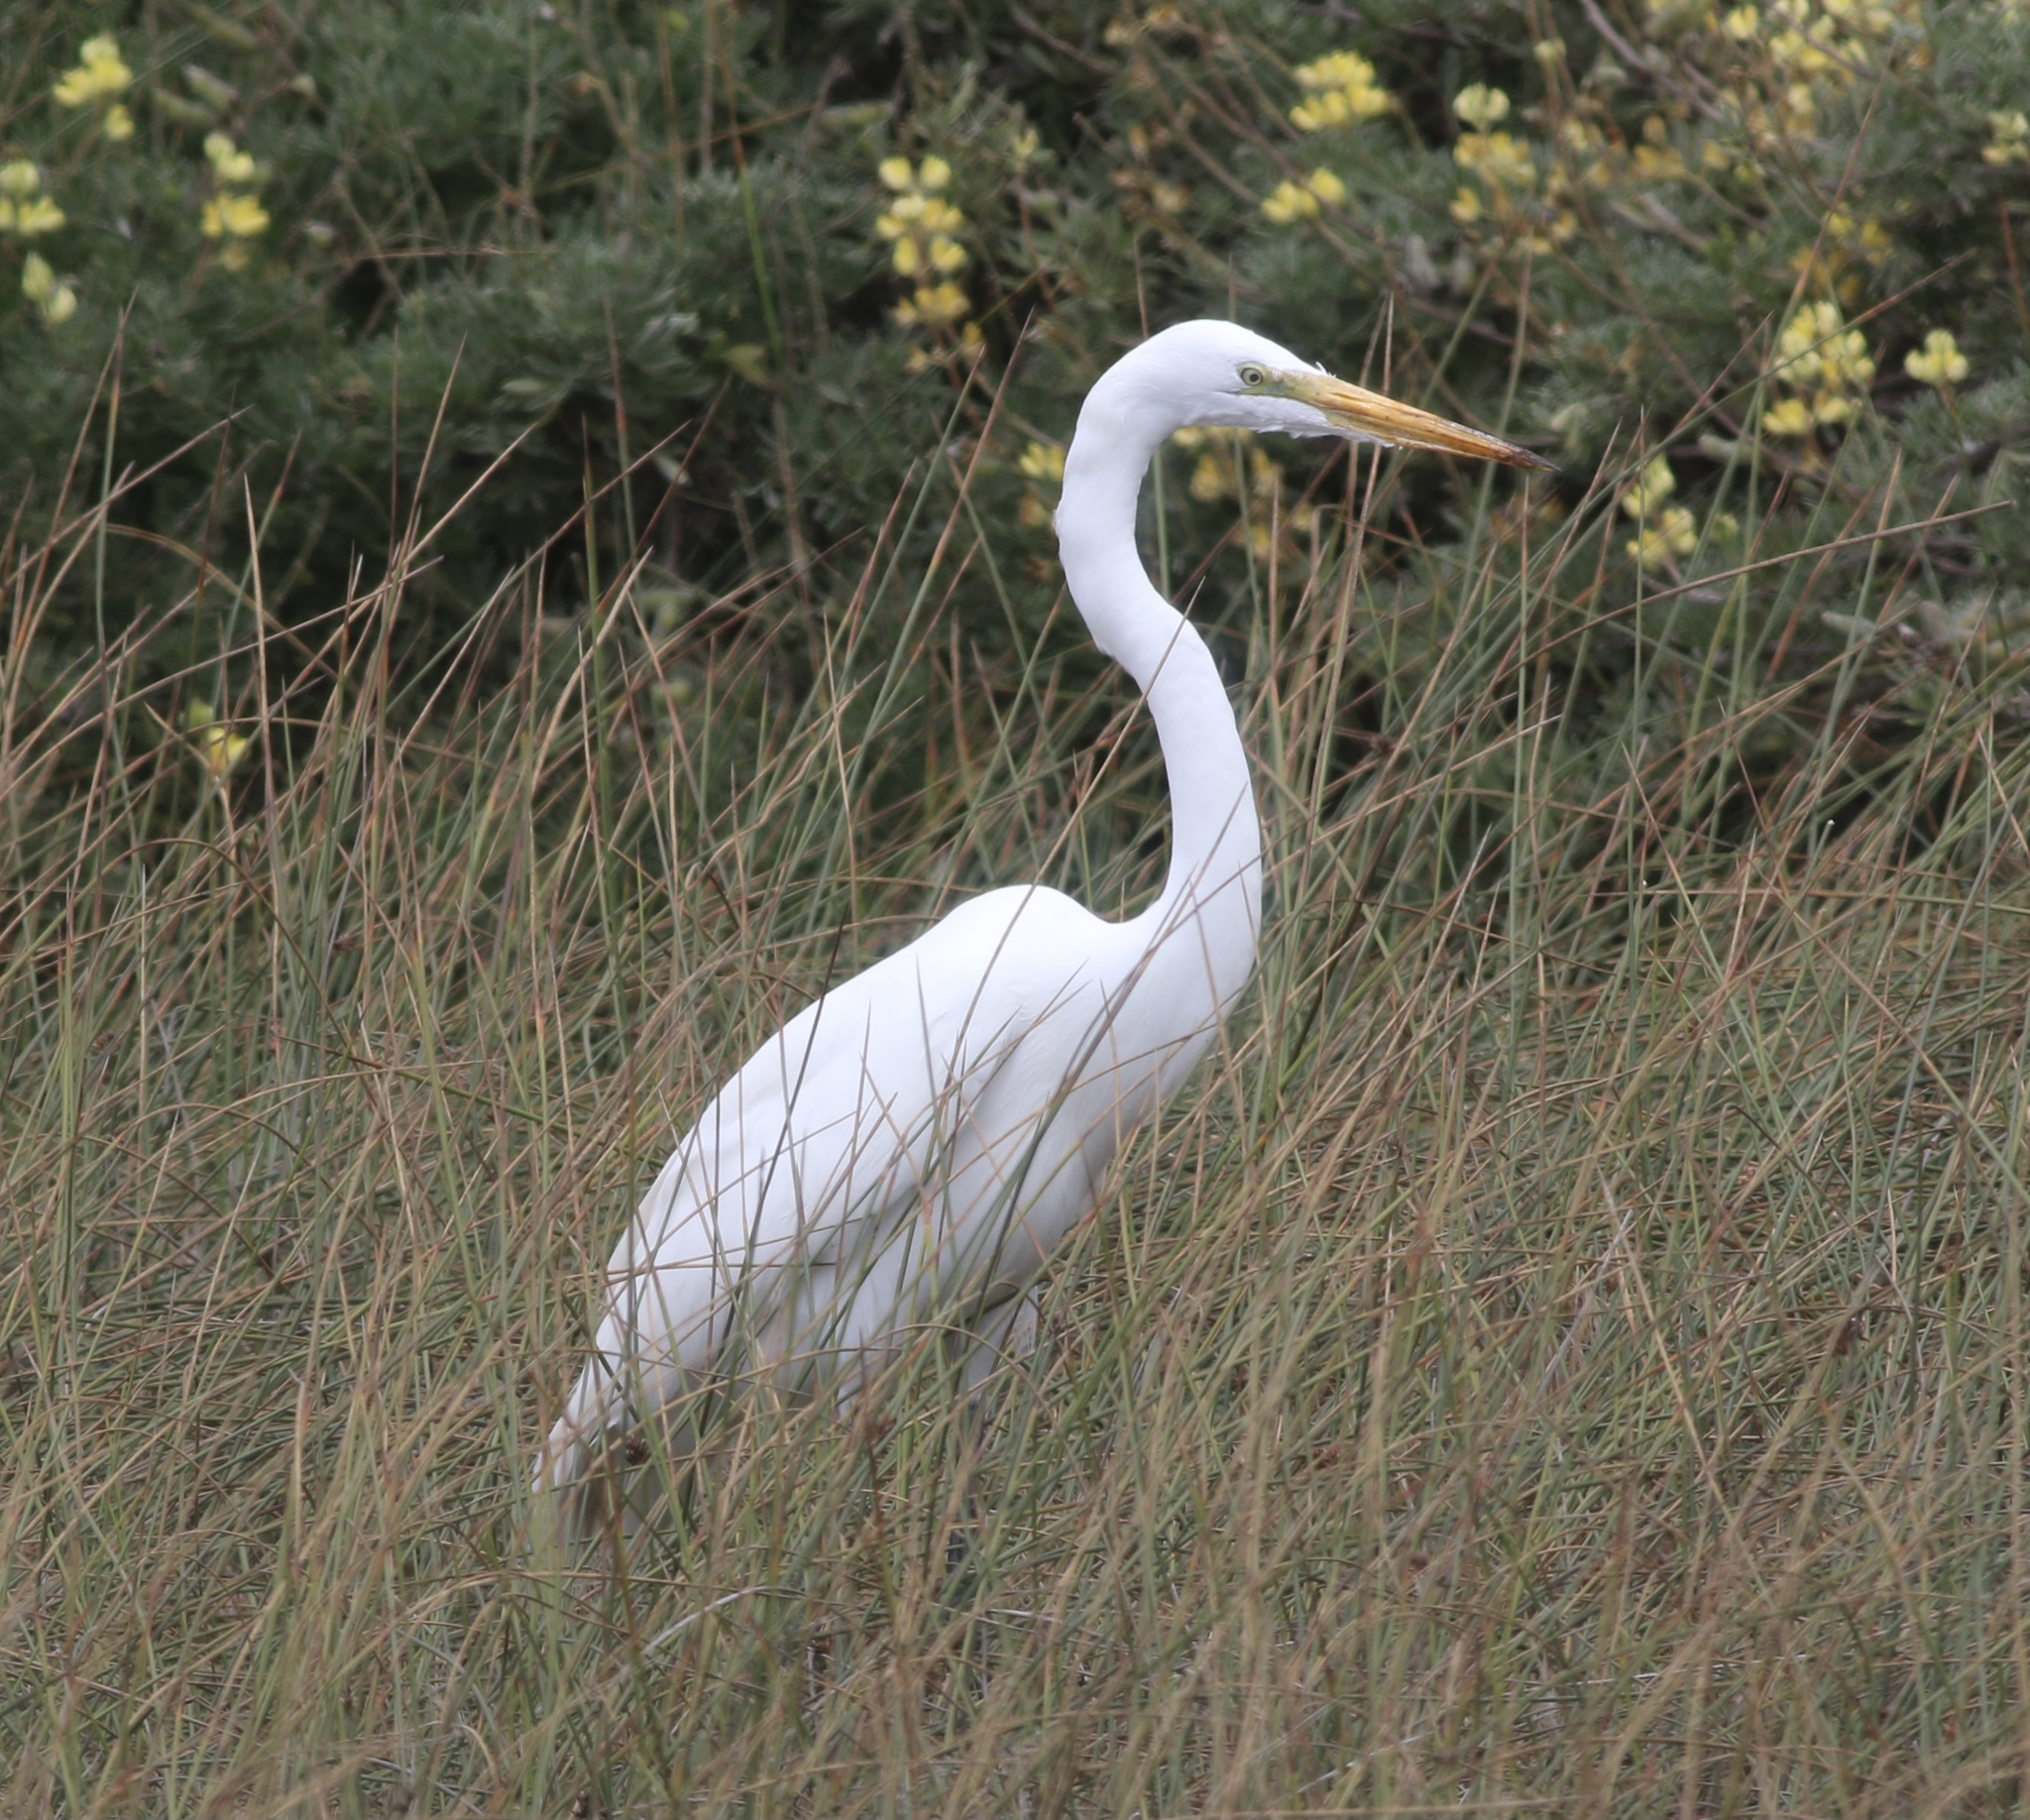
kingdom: Animalia
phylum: Chordata
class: Aves
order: Pelecaniformes
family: Ardeidae
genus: Ardea
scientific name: Ardea alba
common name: Great egret
